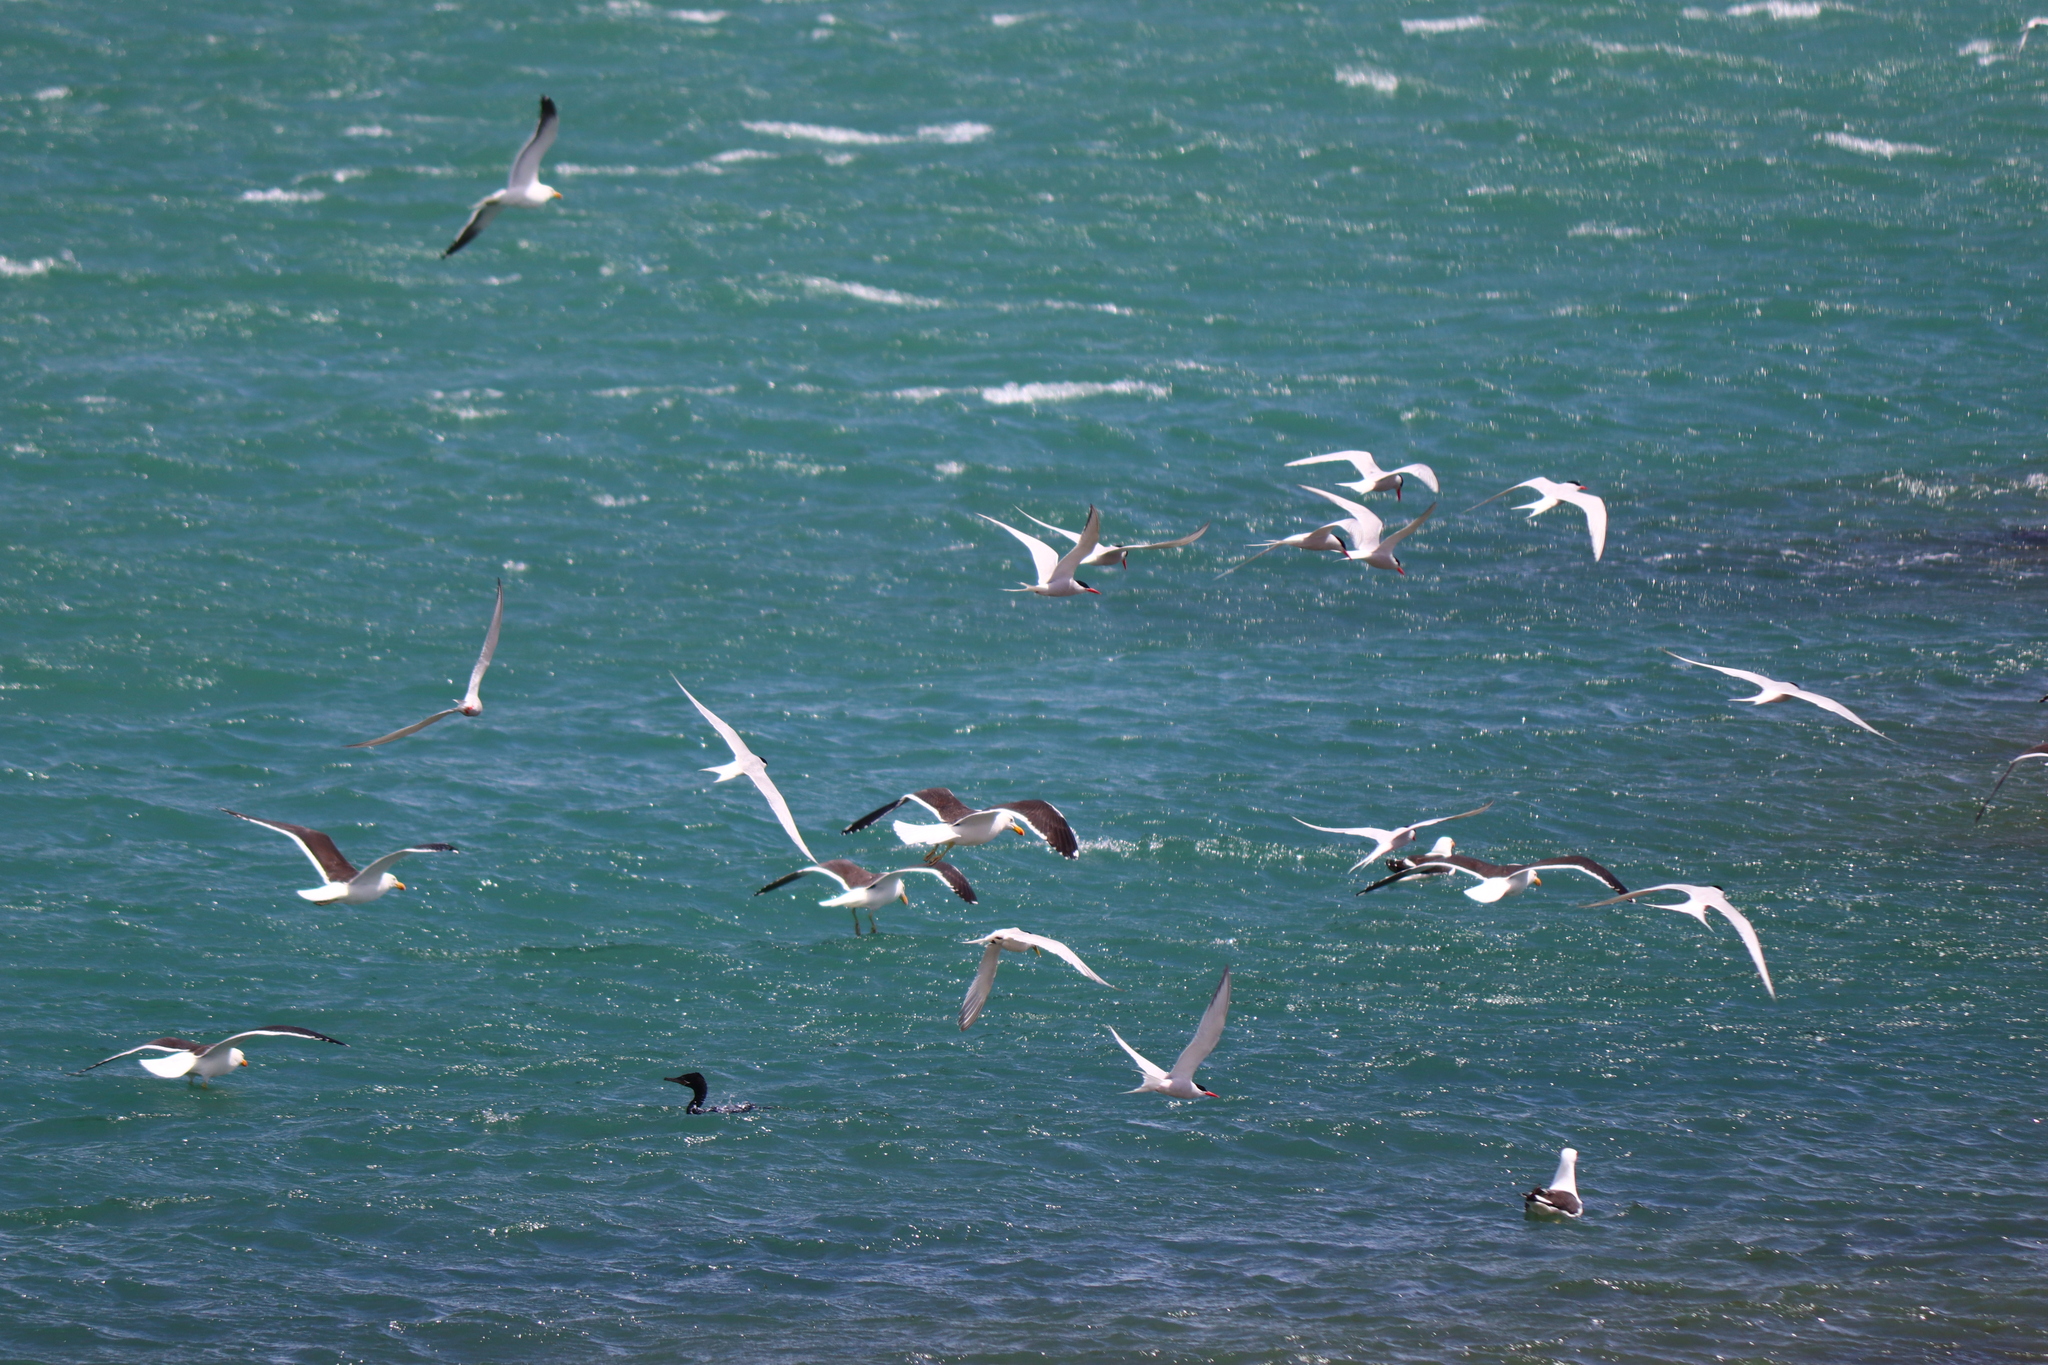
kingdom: Animalia
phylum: Chordata
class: Aves
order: Charadriiformes
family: Laridae
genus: Sterna
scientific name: Sterna hirundinacea
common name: South american tern
